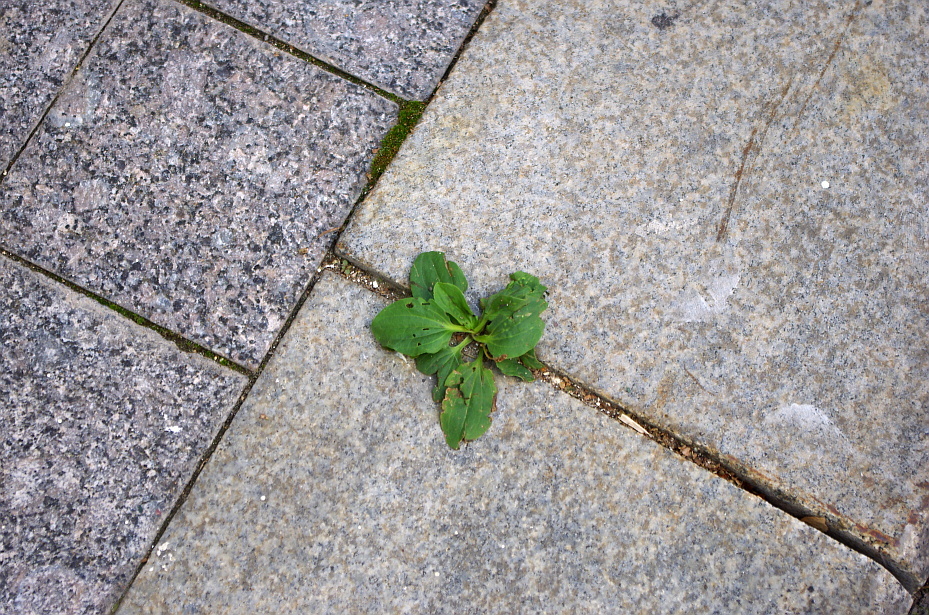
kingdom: Plantae
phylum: Tracheophyta
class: Magnoliopsida
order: Lamiales
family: Plantaginaceae
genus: Plantago
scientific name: Plantago major
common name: Common plantain
